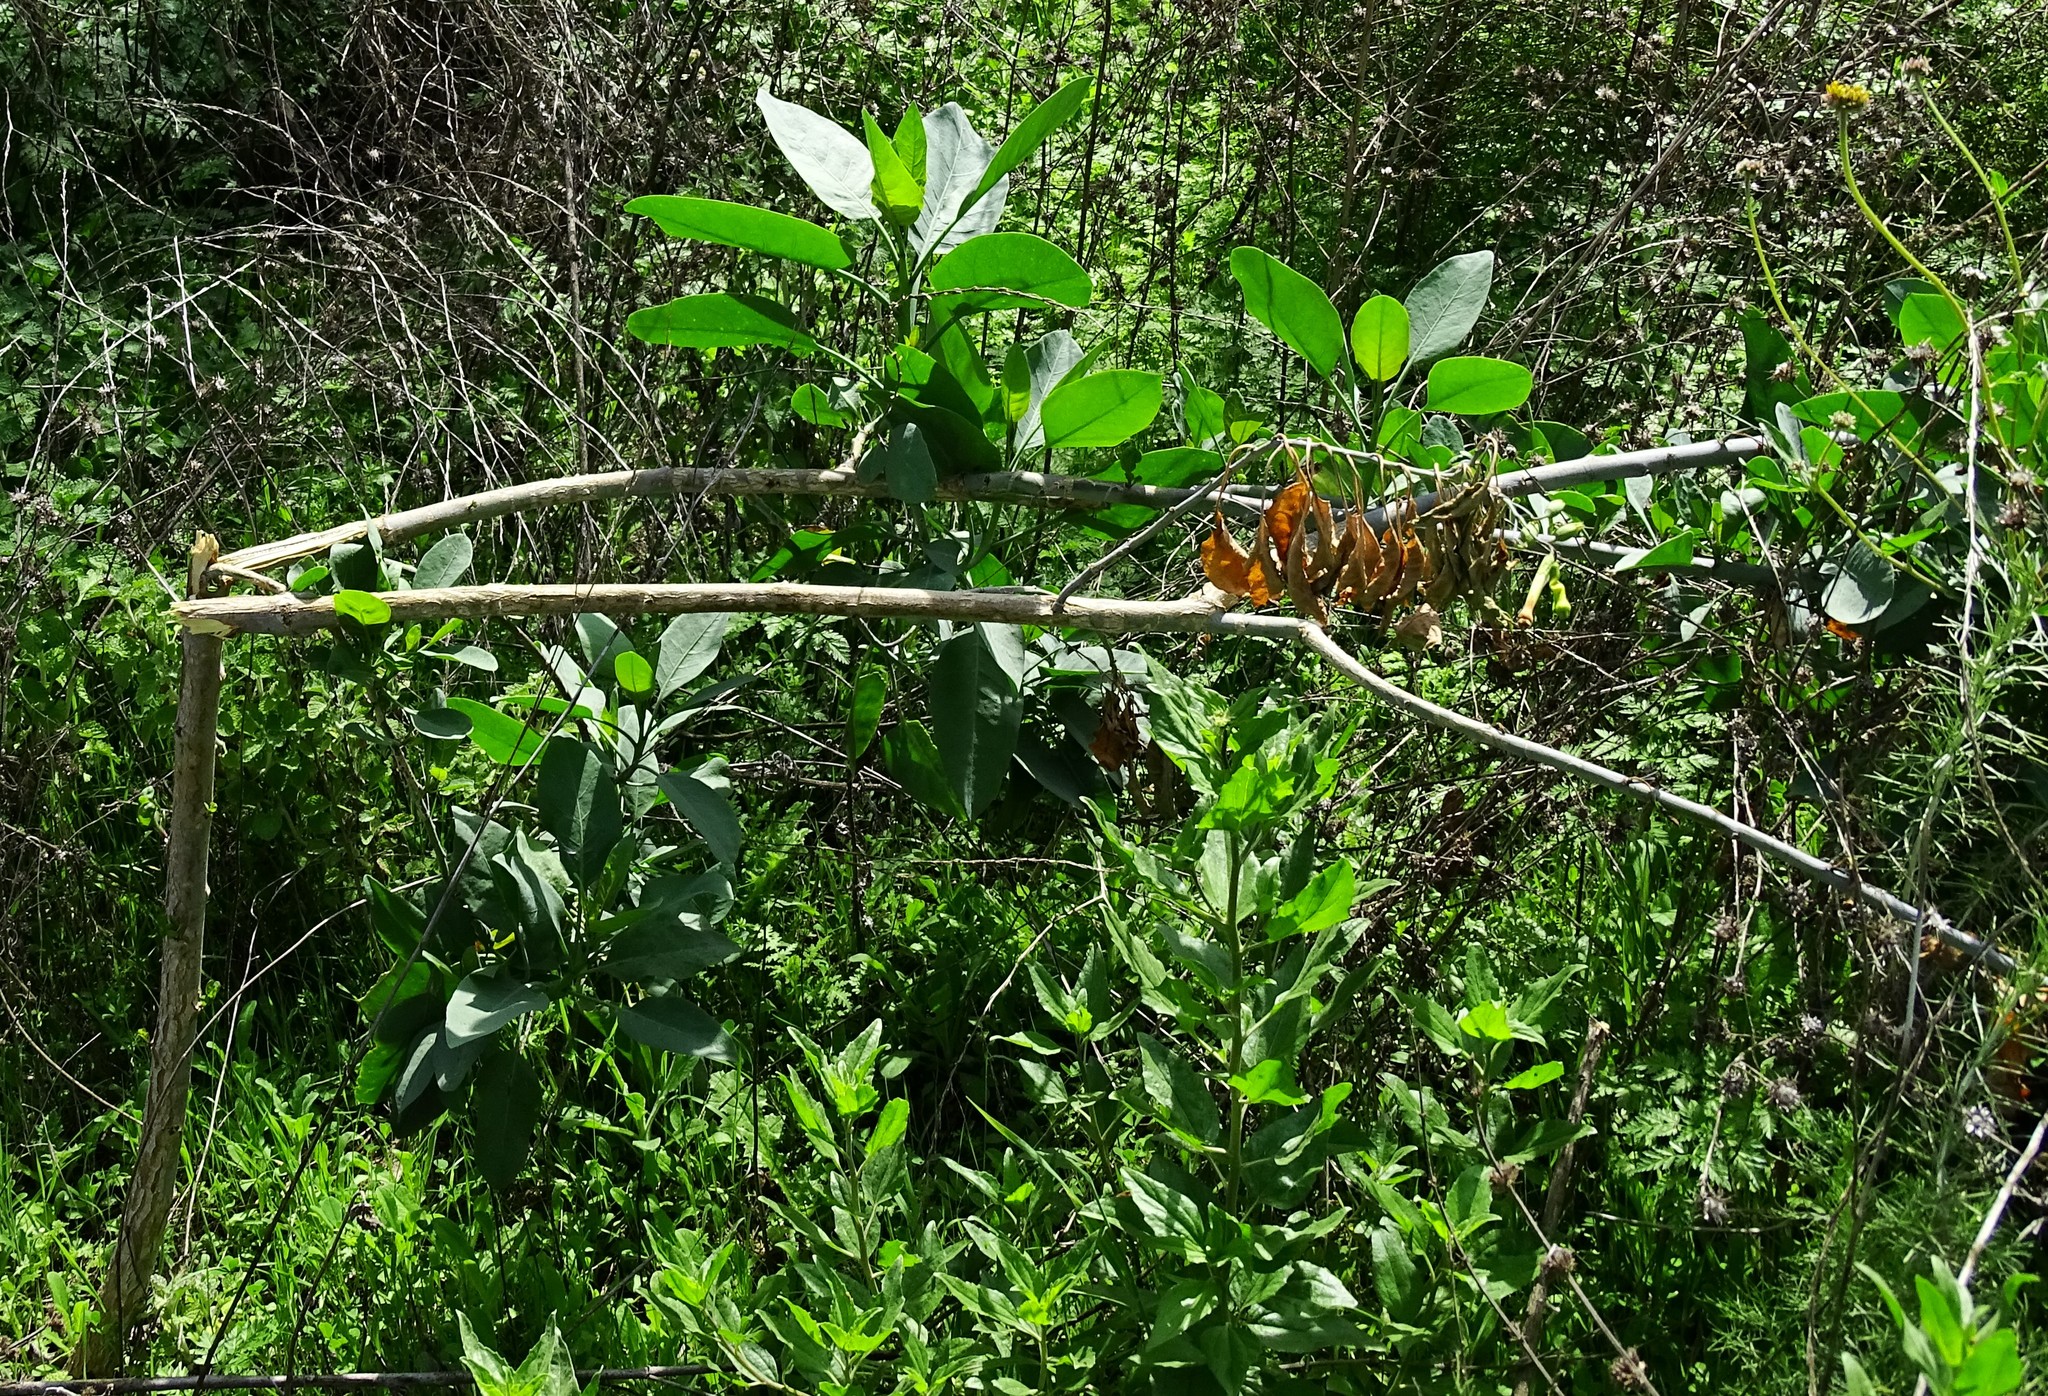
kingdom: Plantae
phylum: Tracheophyta
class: Magnoliopsida
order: Solanales
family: Solanaceae
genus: Nicotiana
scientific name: Nicotiana glauca
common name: Tree tobacco
